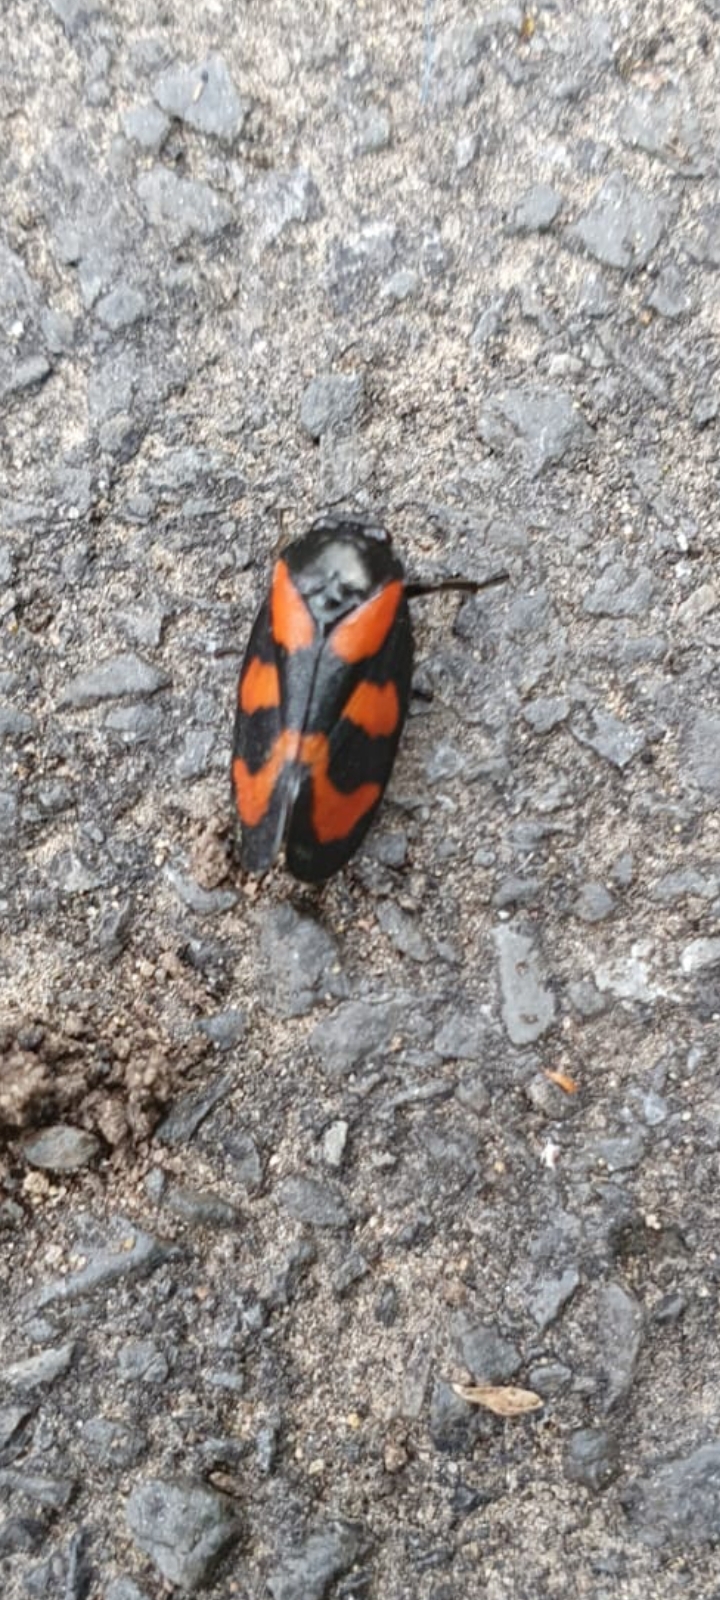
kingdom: Animalia
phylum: Arthropoda
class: Insecta
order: Hemiptera
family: Cercopidae
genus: Cercopis
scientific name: Cercopis vulnerata
